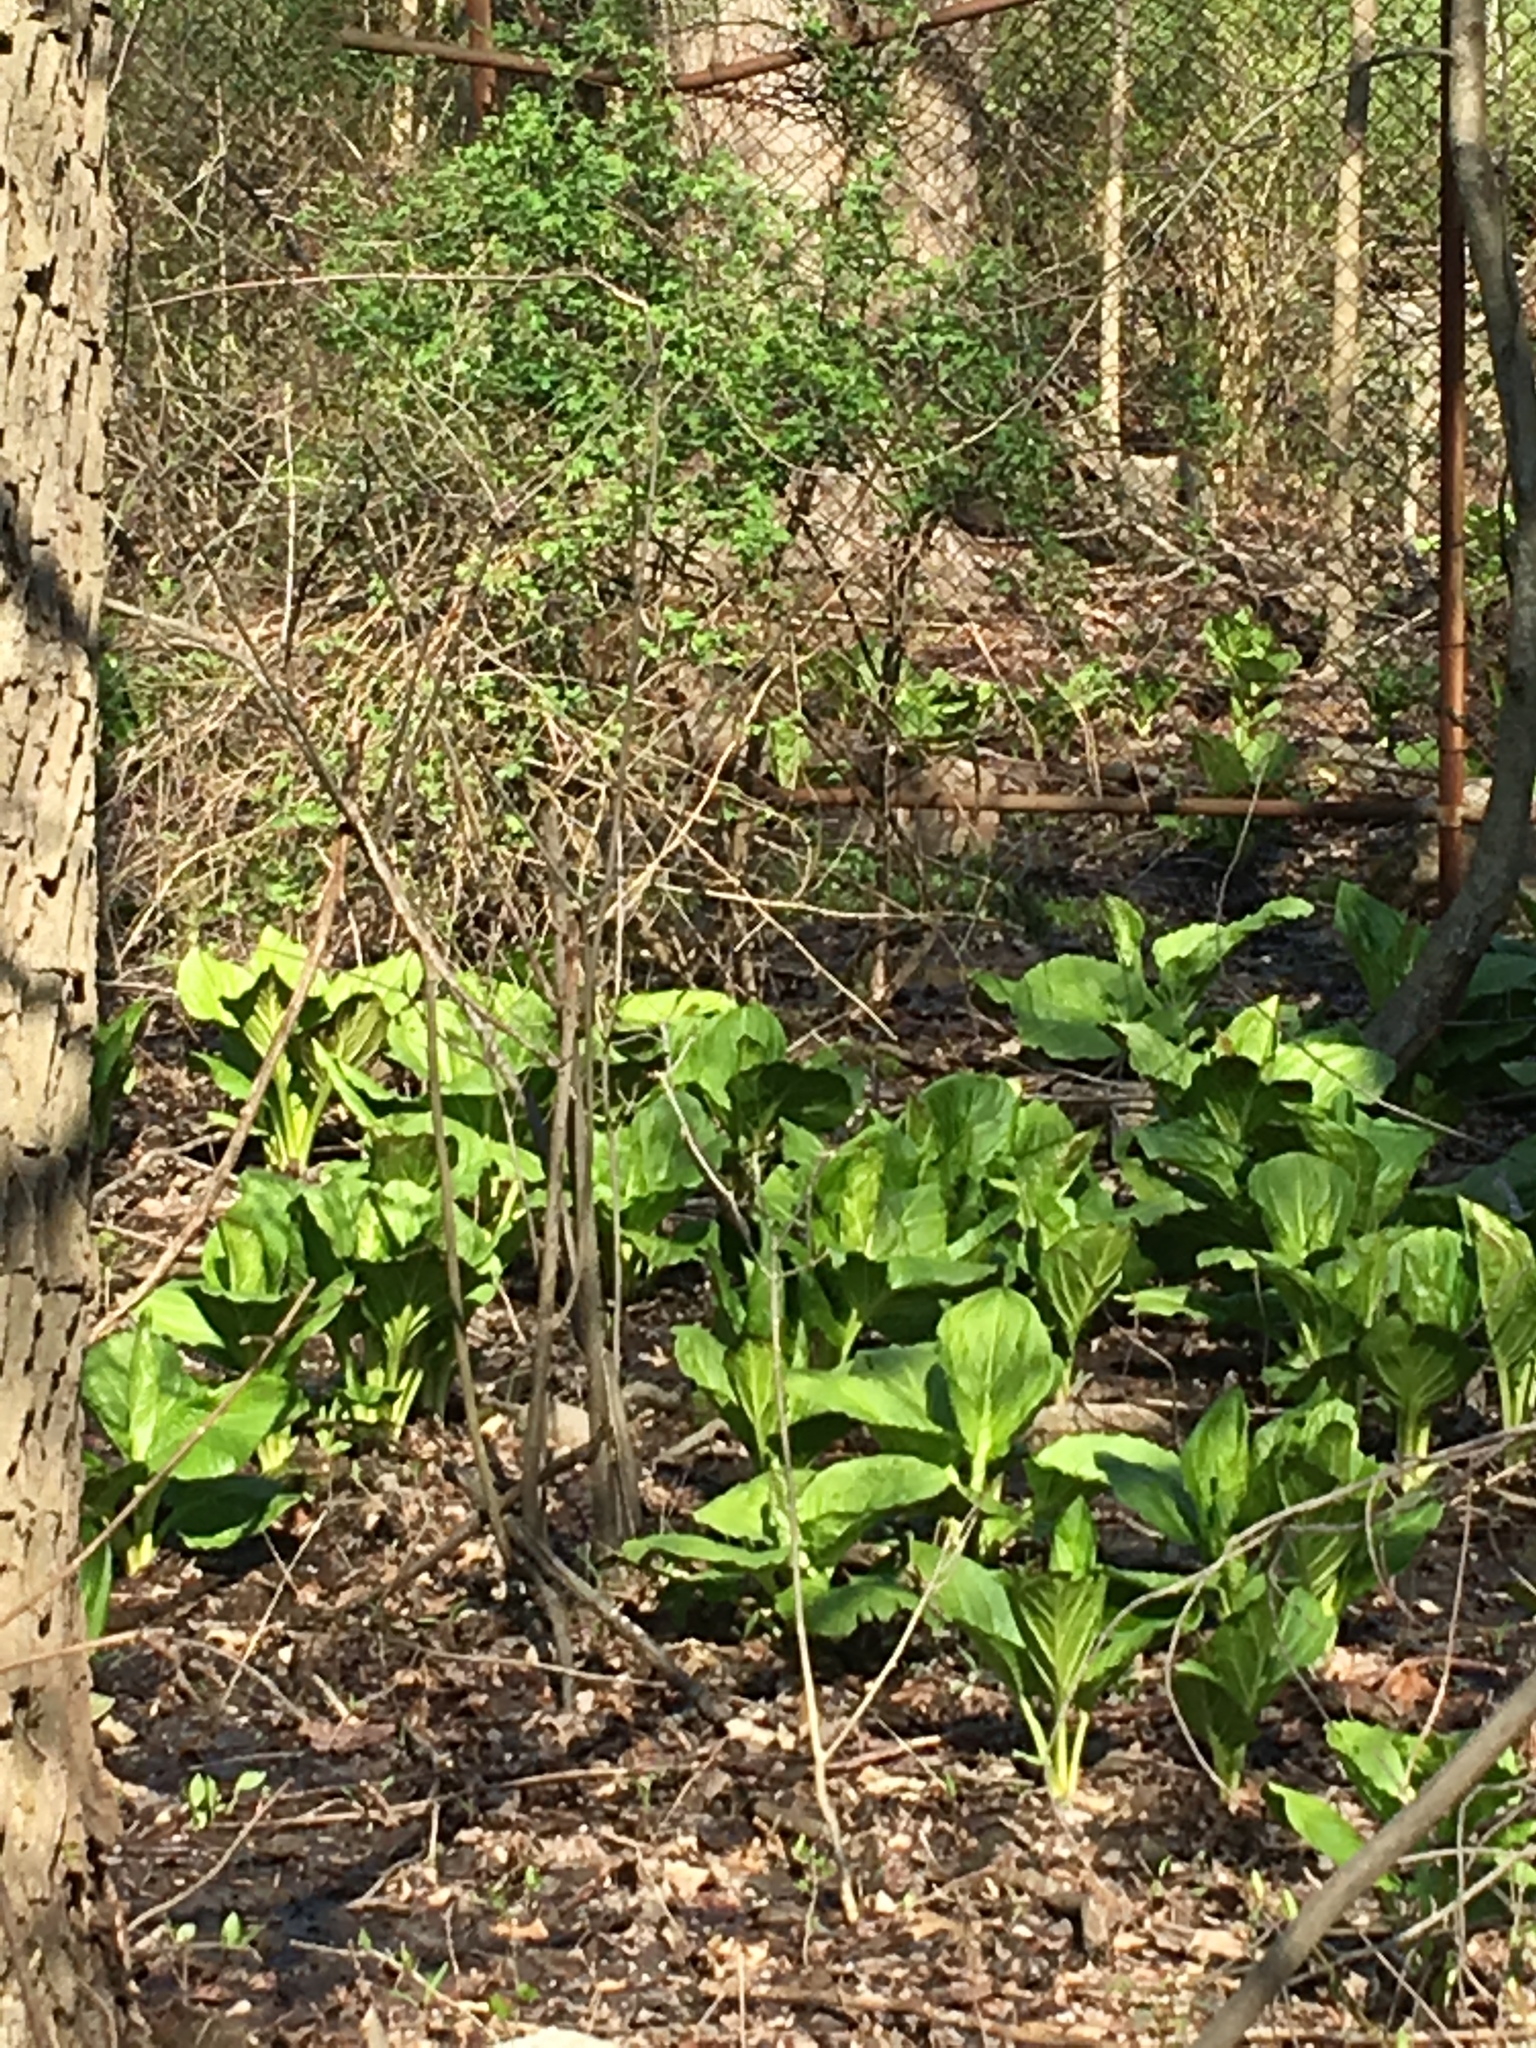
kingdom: Plantae
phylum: Tracheophyta
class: Liliopsida
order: Alismatales
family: Araceae
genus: Symplocarpus
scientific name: Symplocarpus foetidus
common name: Eastern skunk cabbage
